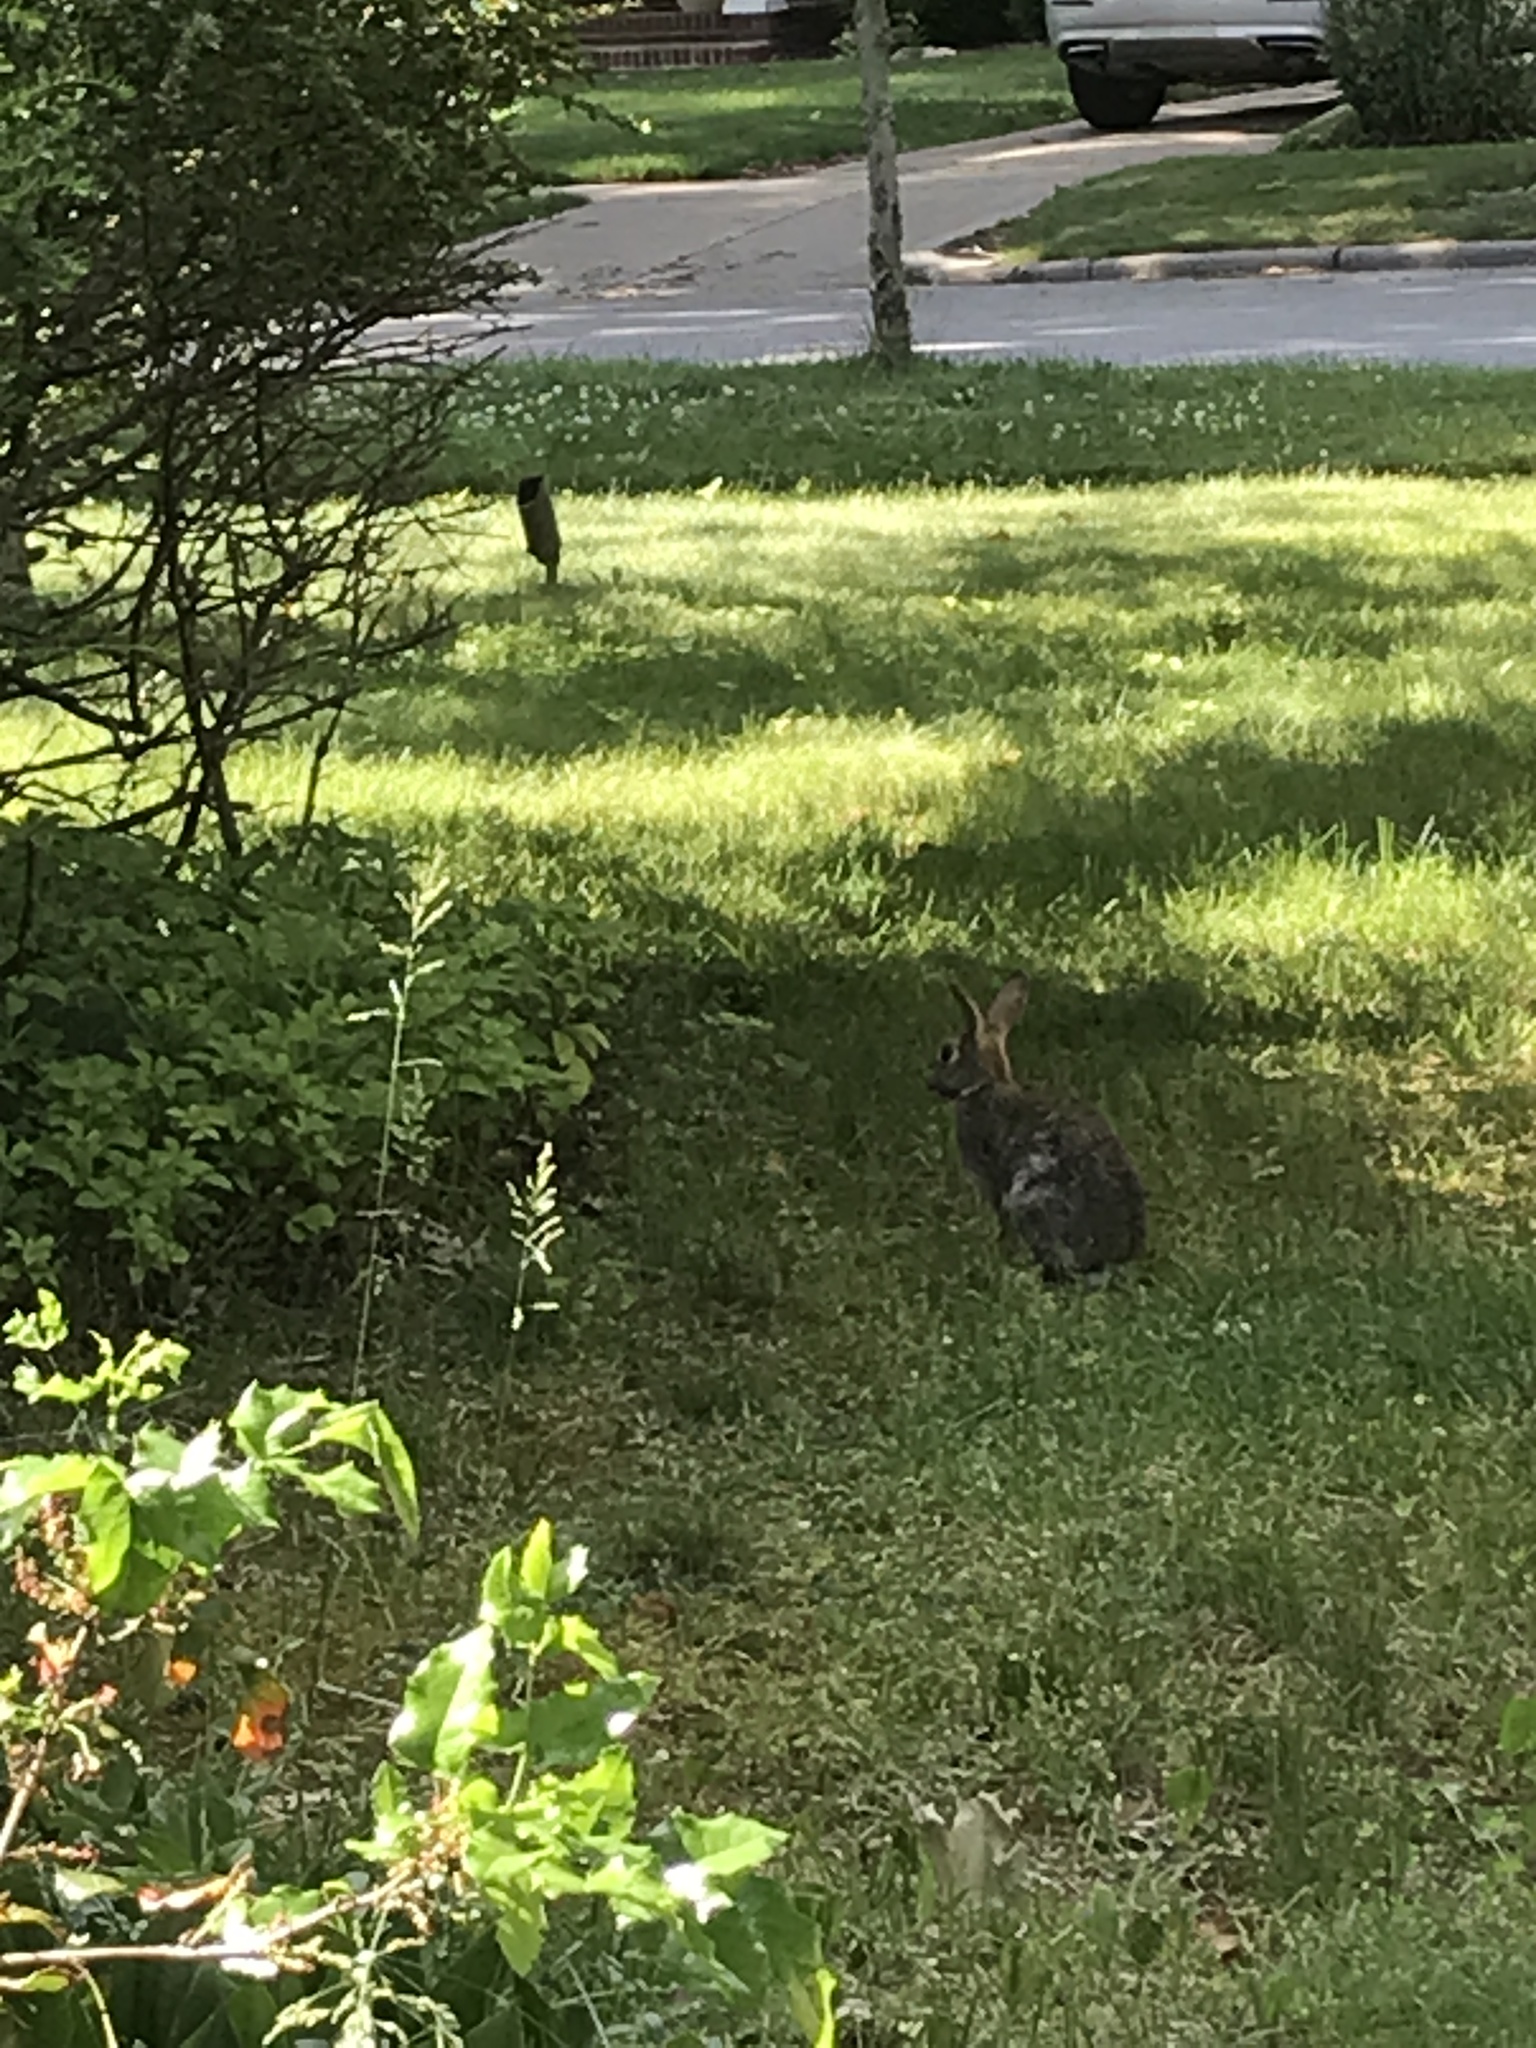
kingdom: Animalia
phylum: Chordata
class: Mammalia
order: Lagomorpha
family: Leporidae
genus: Sylvilagus
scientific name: Sylvilagus floridanus
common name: Eastern cottontail
